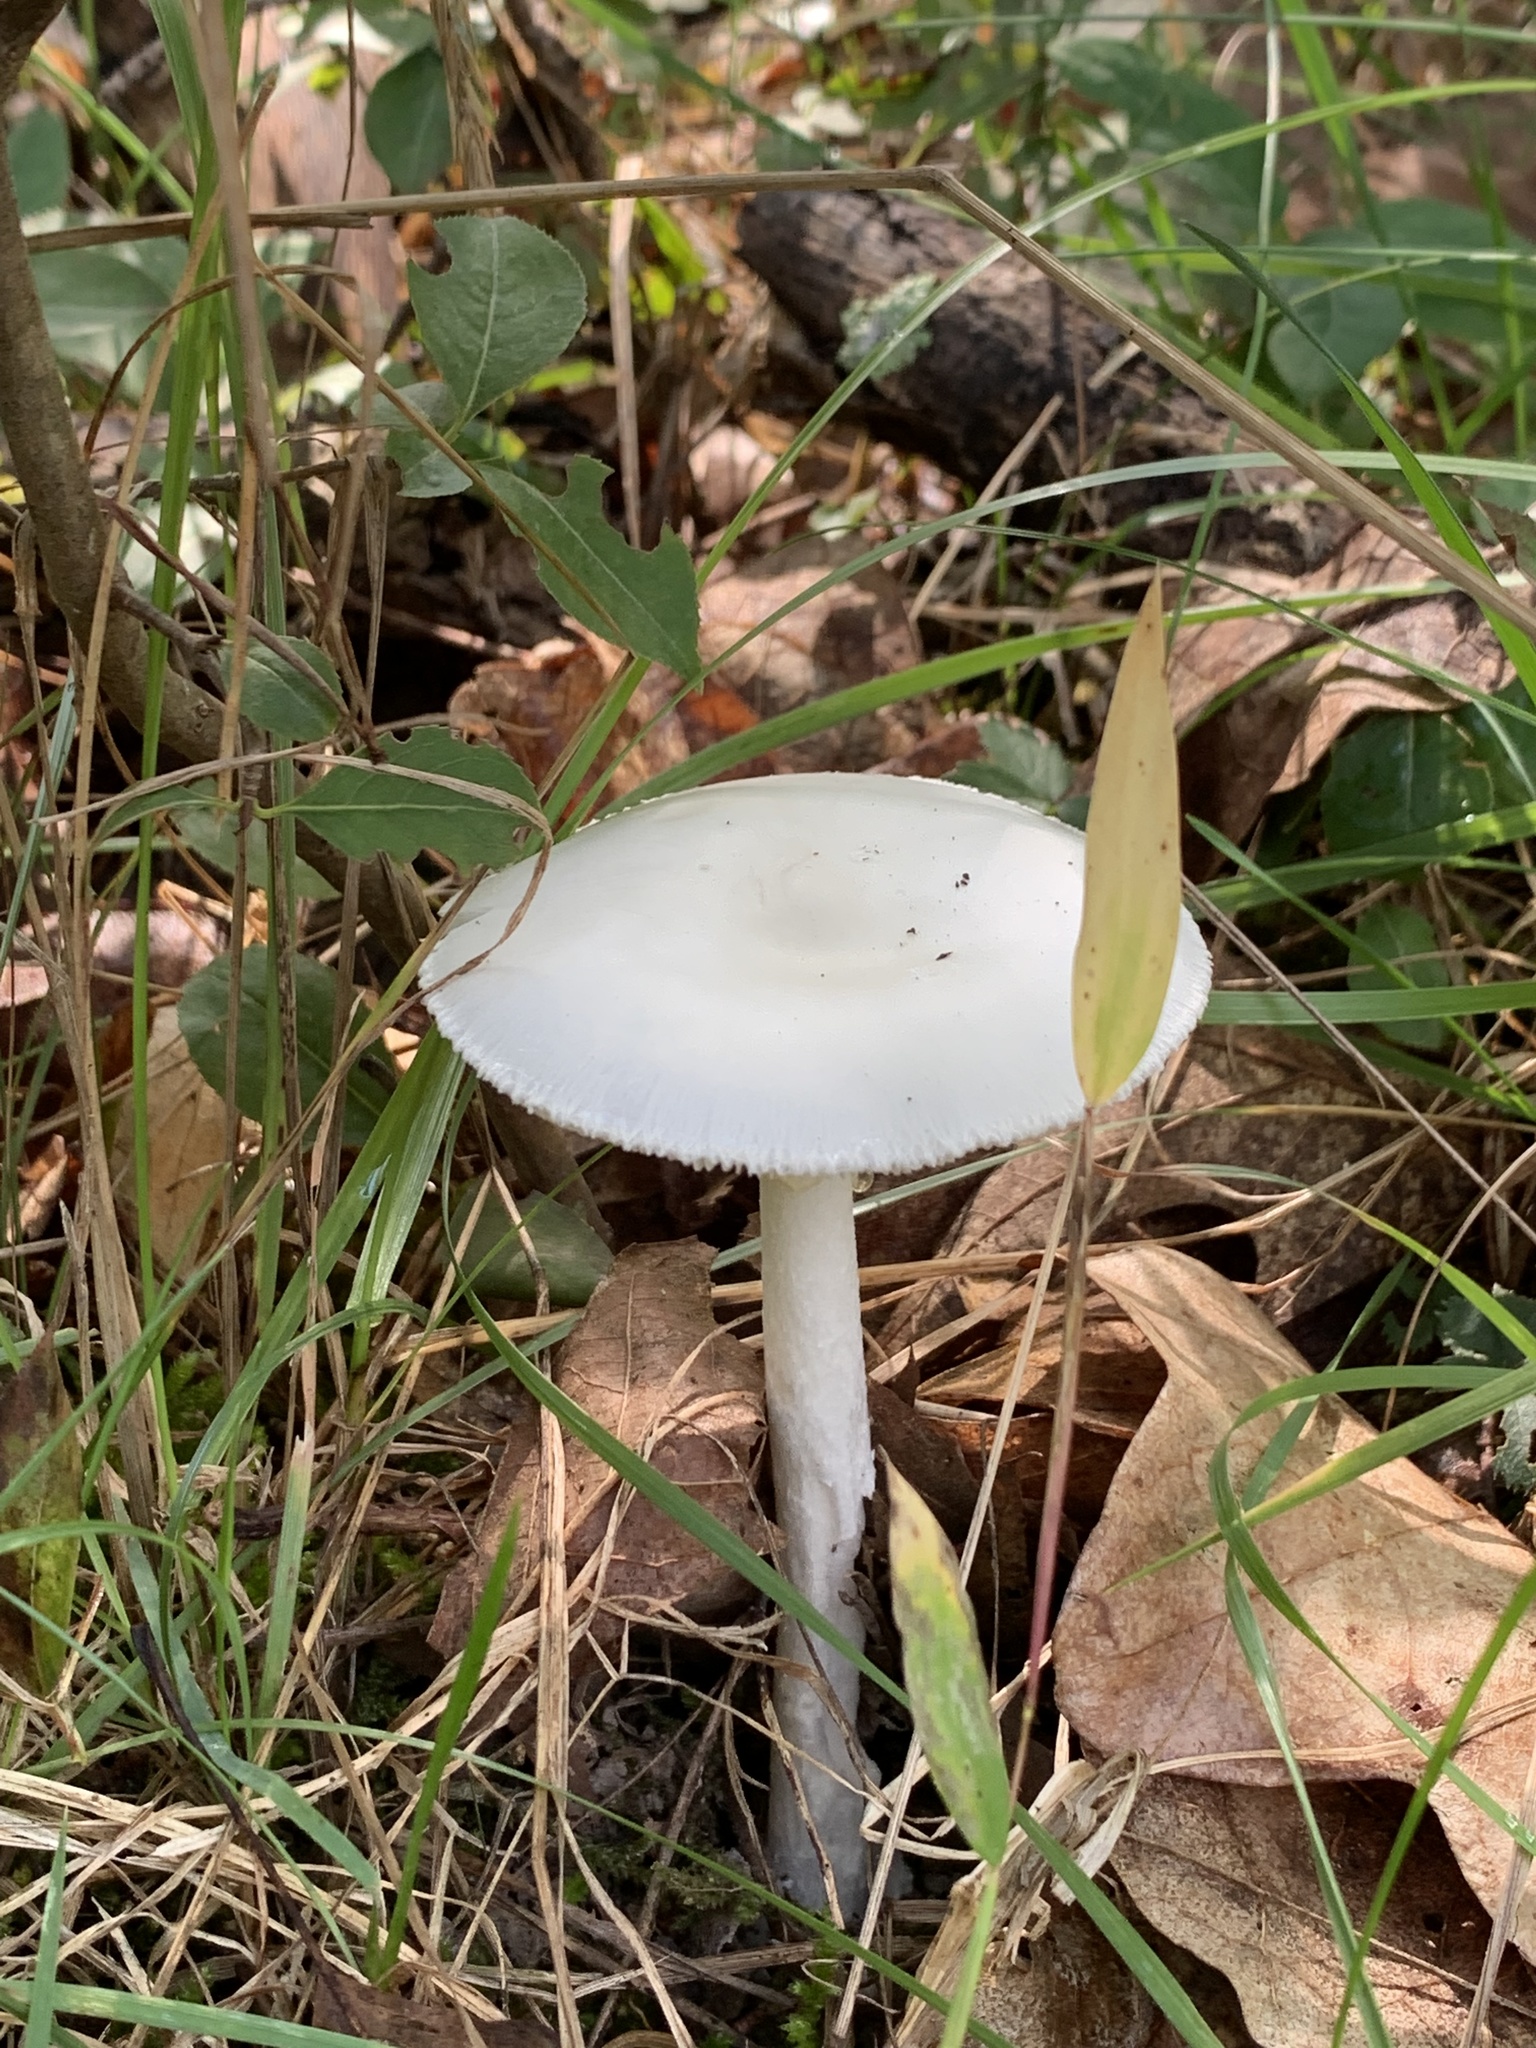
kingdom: Fungi
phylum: Basidiomycota
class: Agaricomycetes
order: Agaricales
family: Amanitaceae
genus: Amanita
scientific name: Amanita bisporigera
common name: Eastern north american destroying angel
